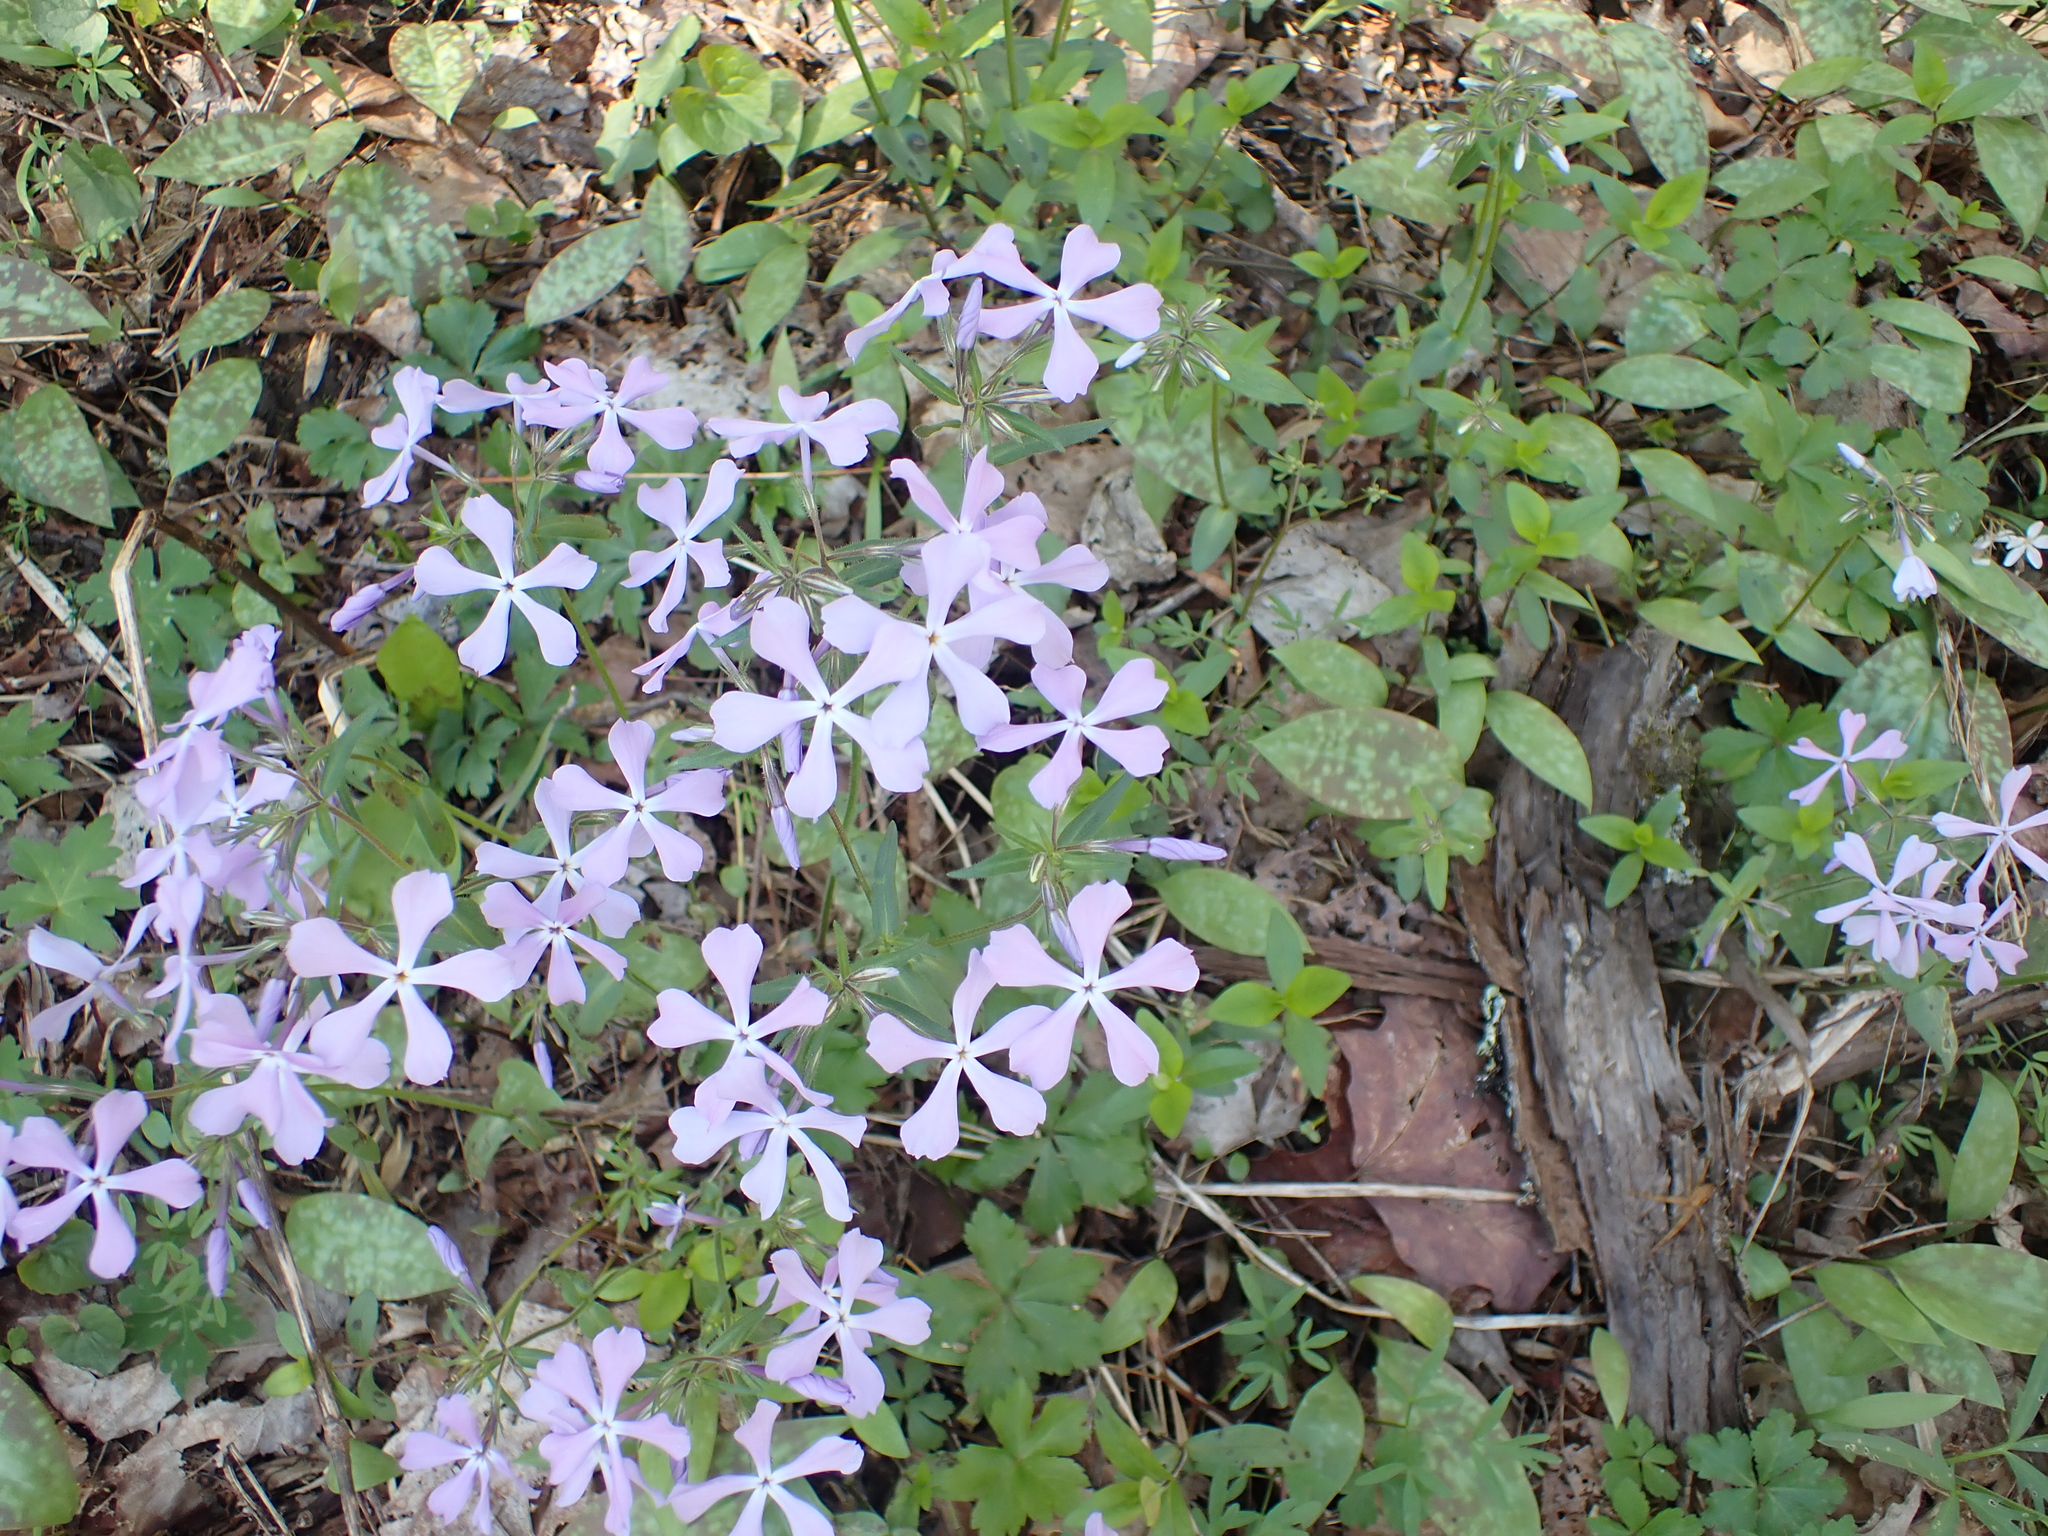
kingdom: Plantae
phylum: Tracheophyta
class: Magnoliopsida
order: Ericales
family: Polemoniaceae
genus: Phlox
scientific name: Phlox divaricata
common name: Blue phlox
